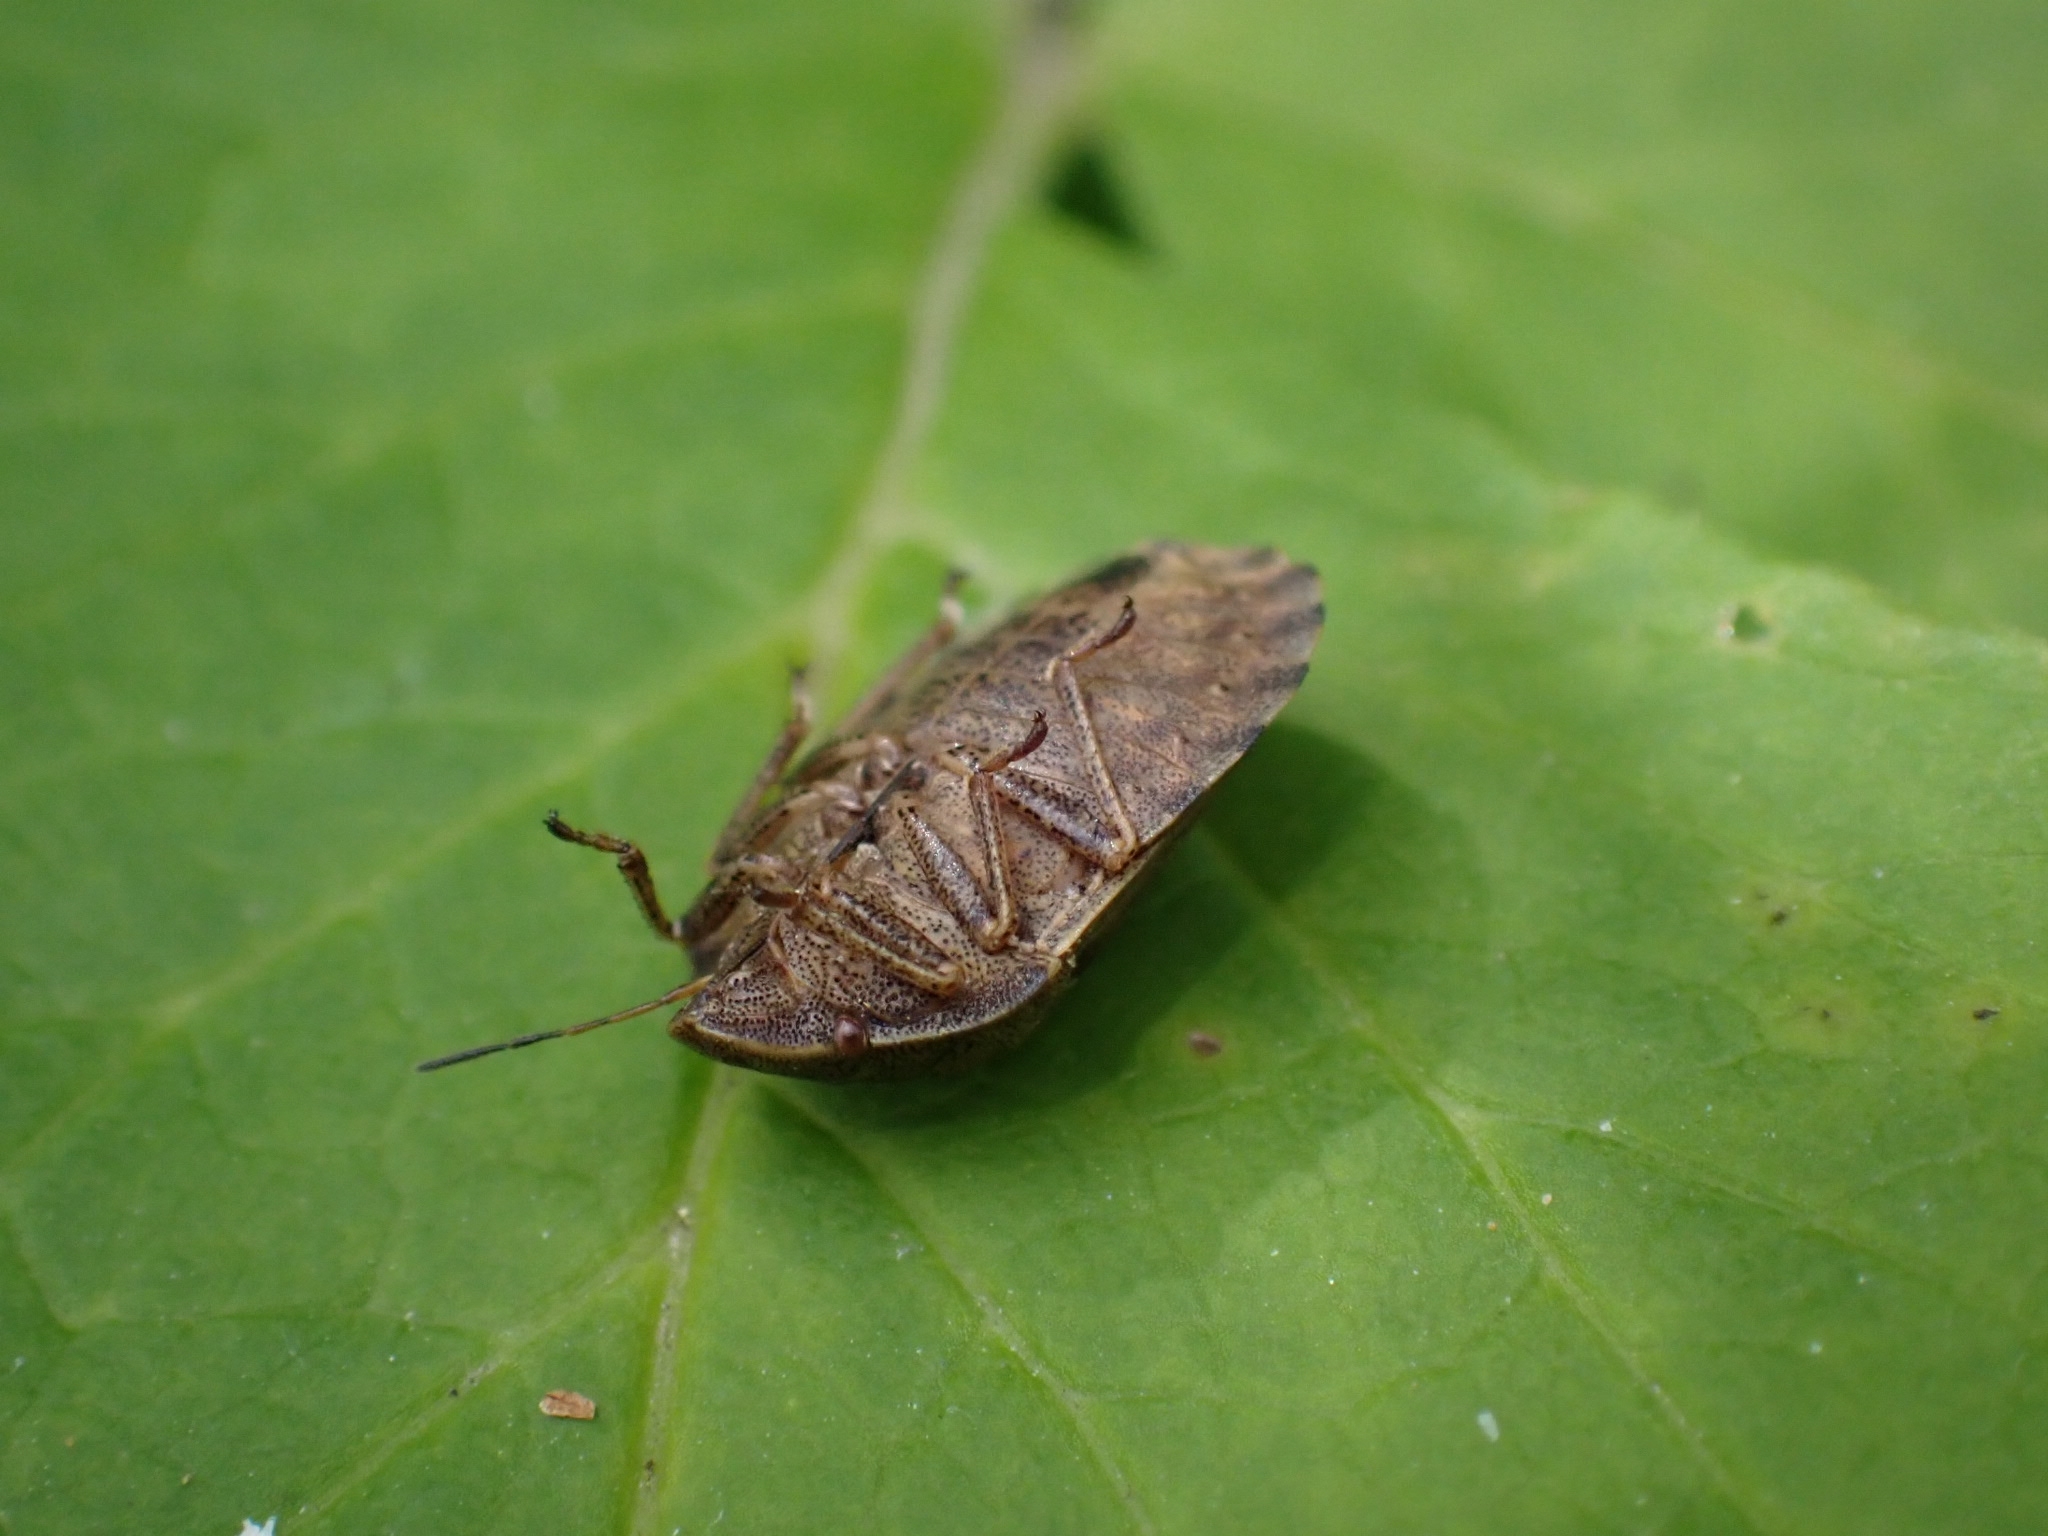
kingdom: Animalia
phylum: Arthropoda
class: Insecta
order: Hemiptera
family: Scutelleridae
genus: Eurygaster
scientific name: Eurygaster testudinaria
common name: Tortoise bug
